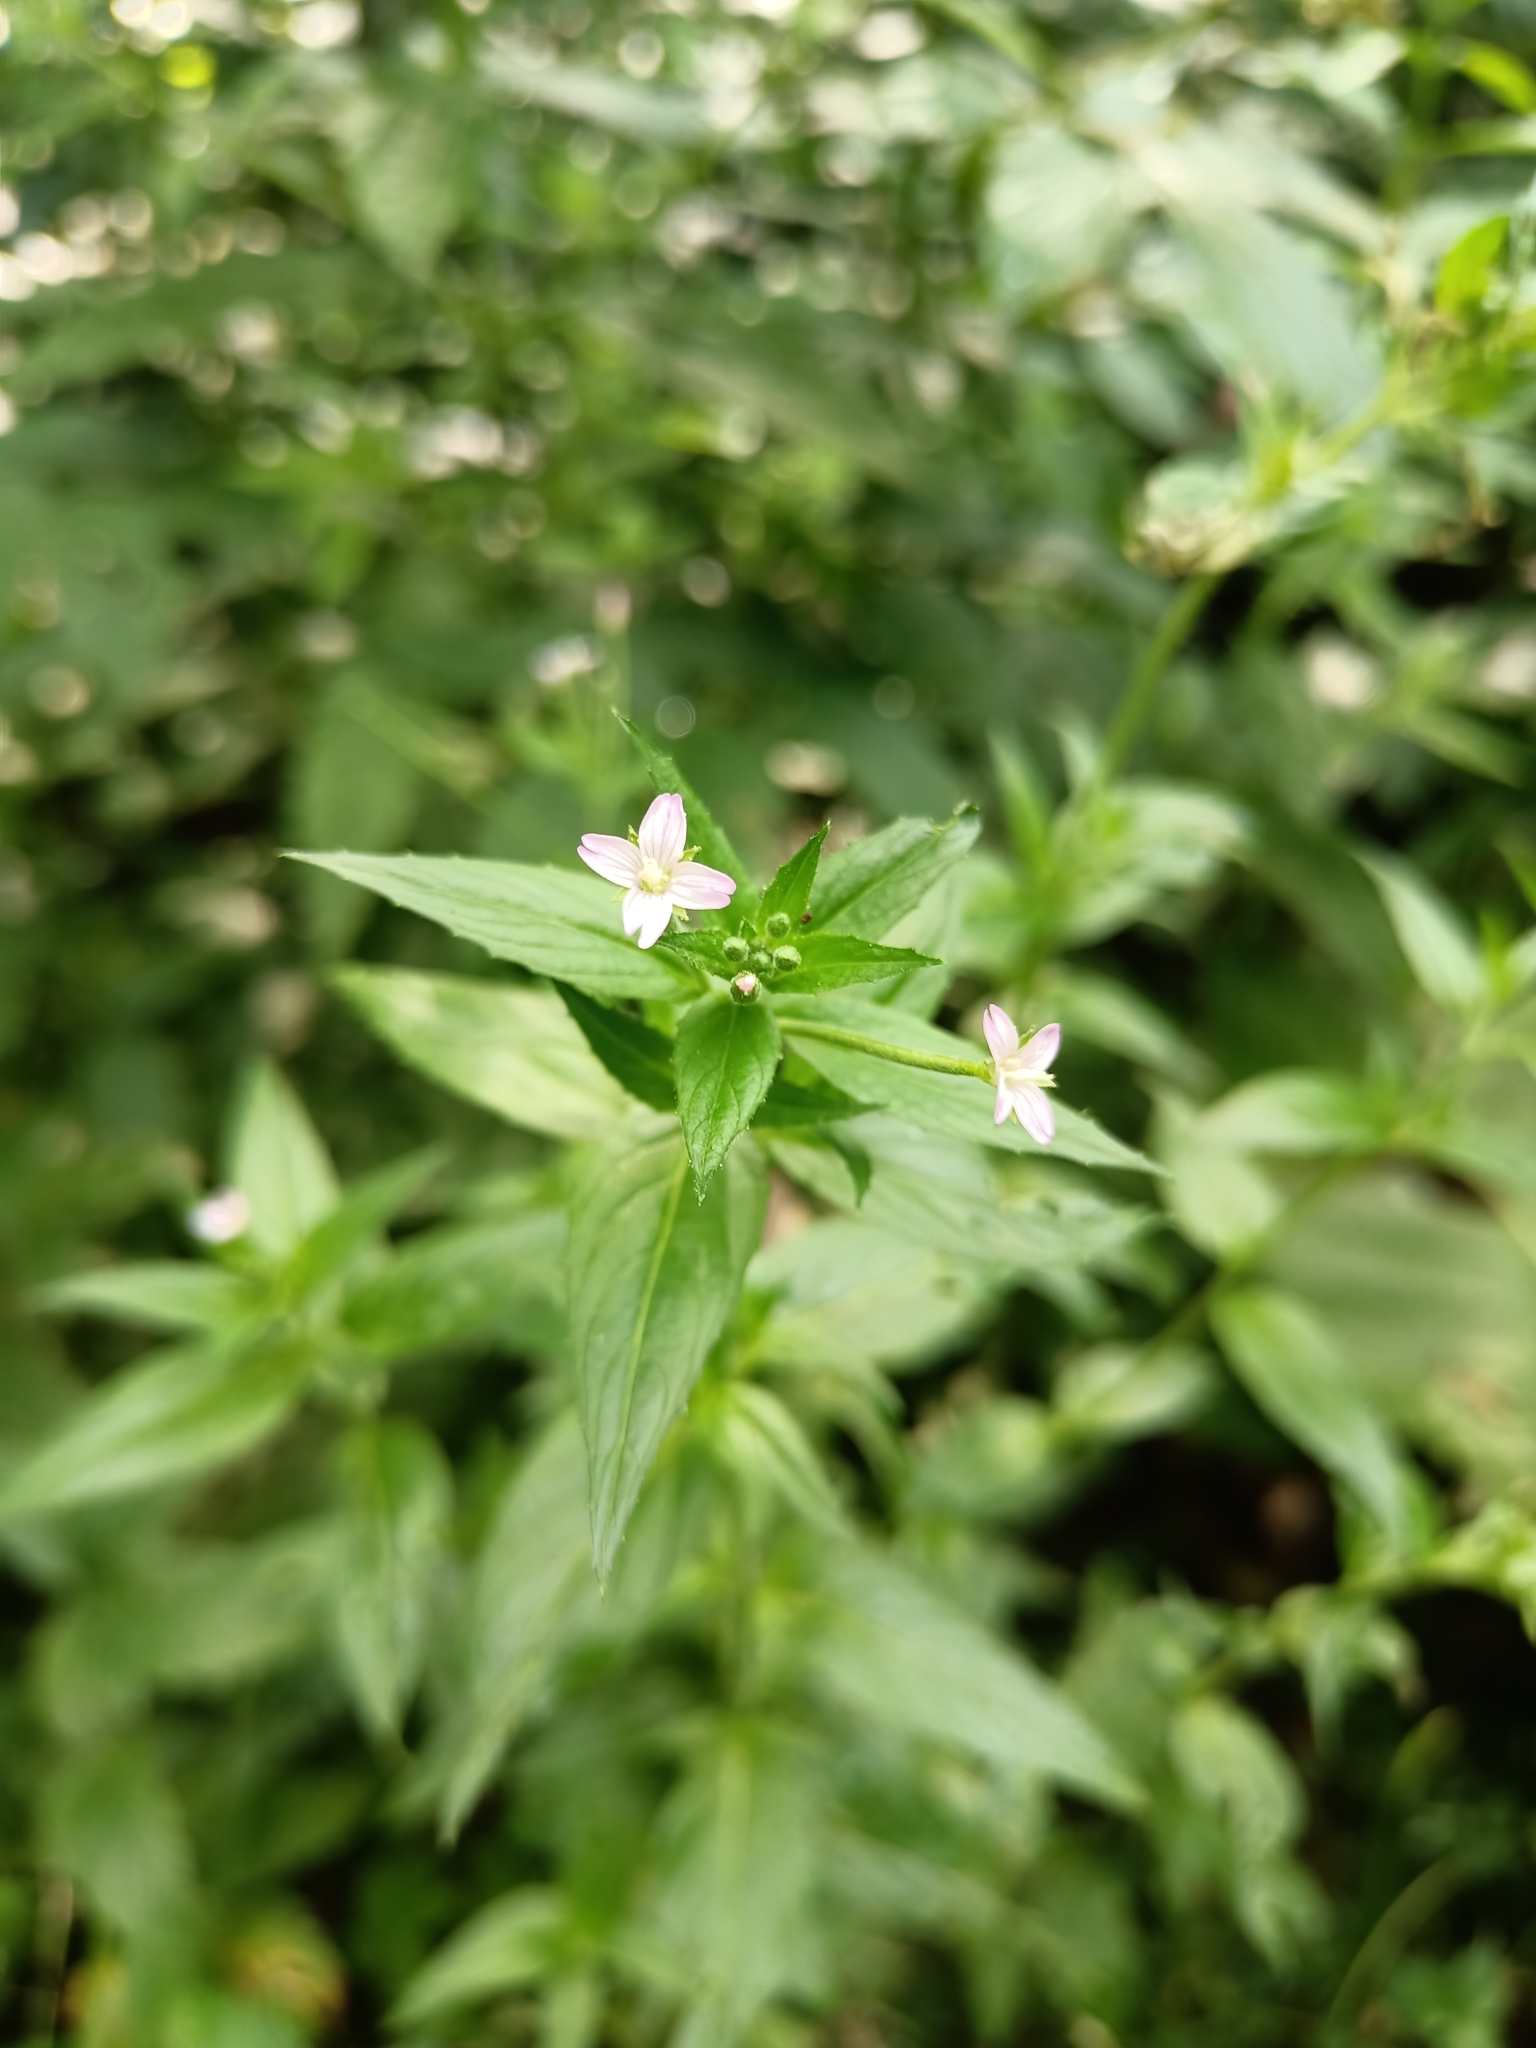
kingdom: Plantae
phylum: Tracheophyta
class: Magnoliopsida
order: Myrtales
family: Onagraceae
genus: Epilobium
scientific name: Epilobium ciliatum
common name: American willowherb
